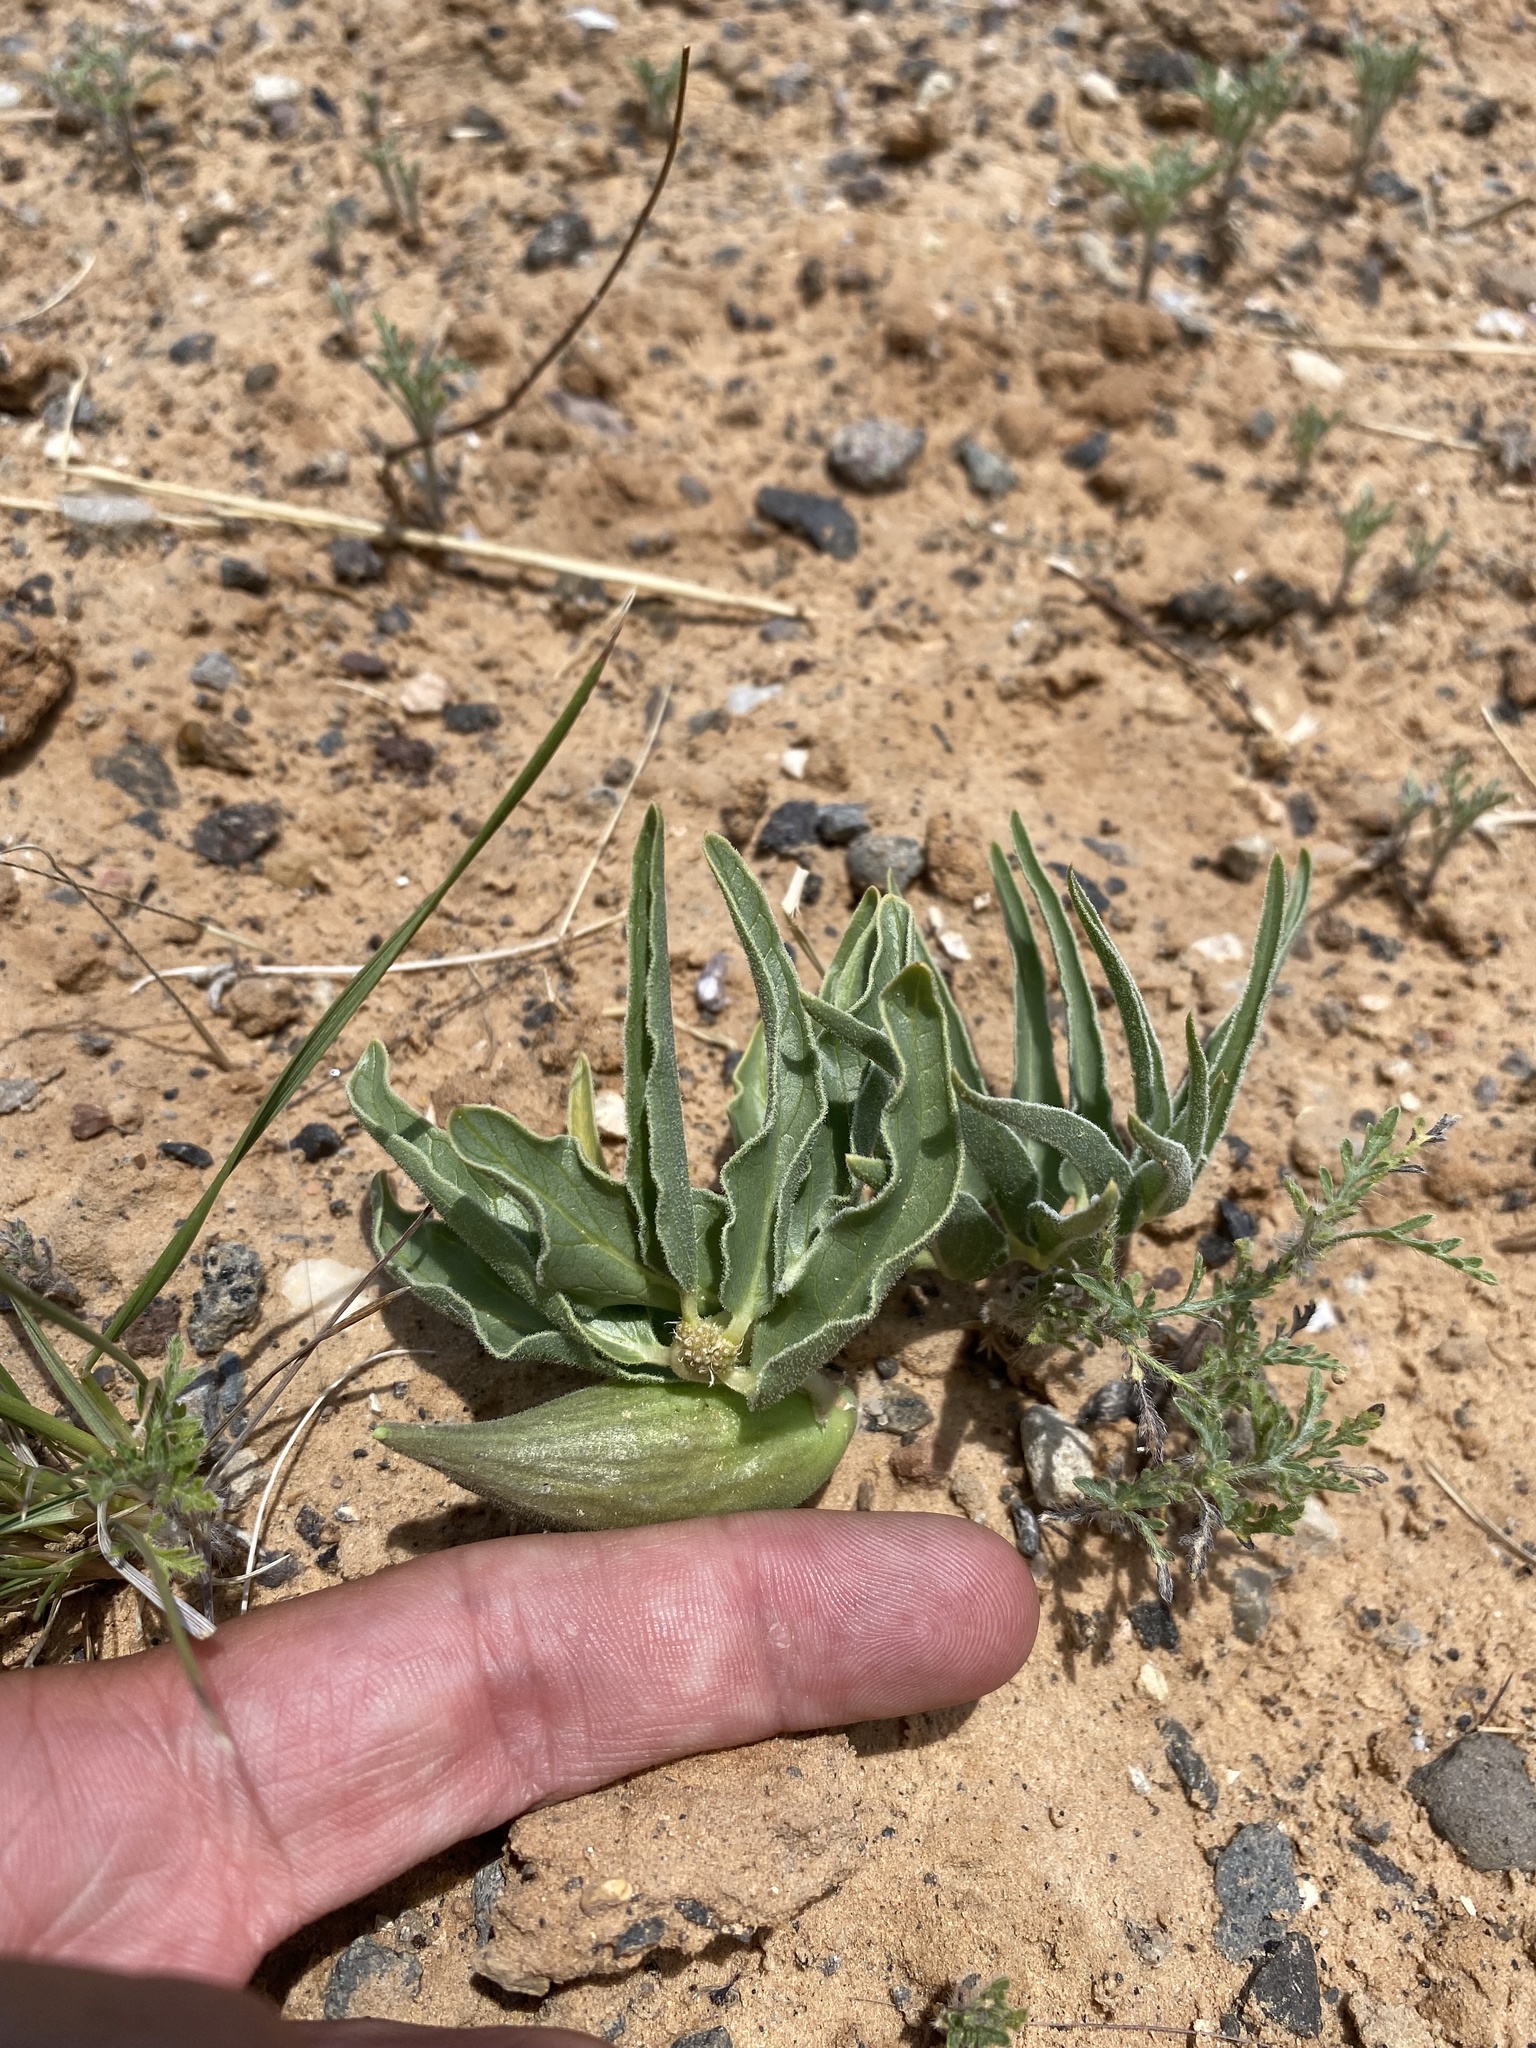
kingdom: Plantae
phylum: Tracheophyta
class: Magnoliopsida
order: Gentianales
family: Apocynaceae
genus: Asclepias
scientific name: Asclepias involucrata
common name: Dwarf milkweed
